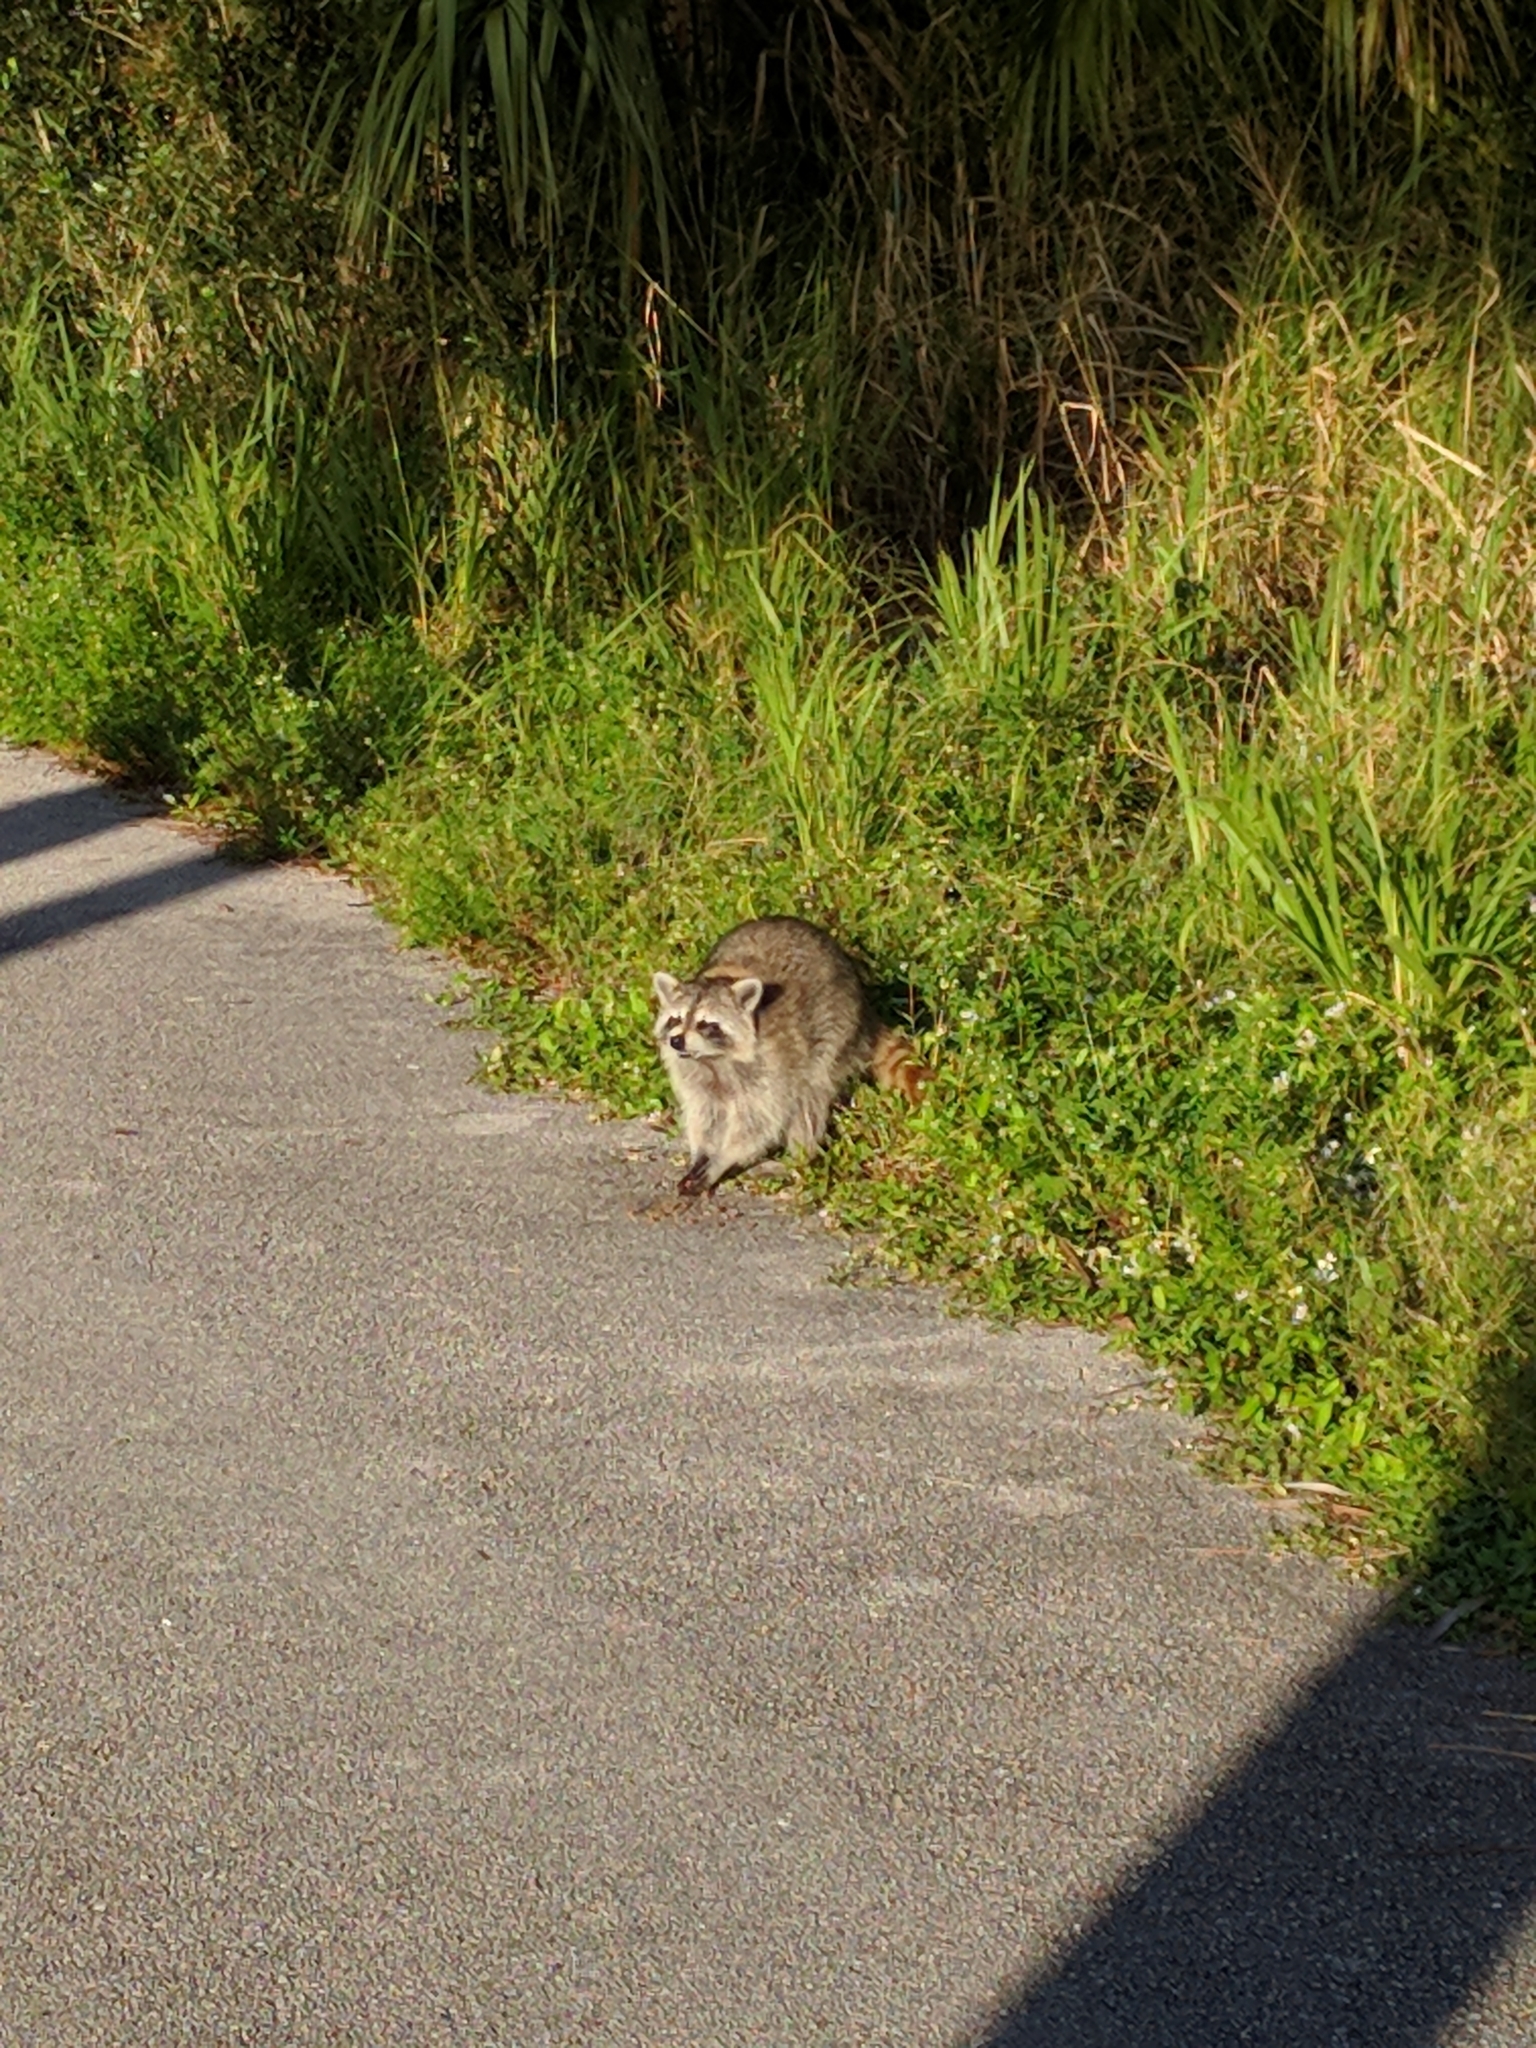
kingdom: Animalia
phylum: Chordata
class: Mammalia
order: Carnivora
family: Procyonidae
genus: Procyon
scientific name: Procyon lotor
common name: Raccoon
